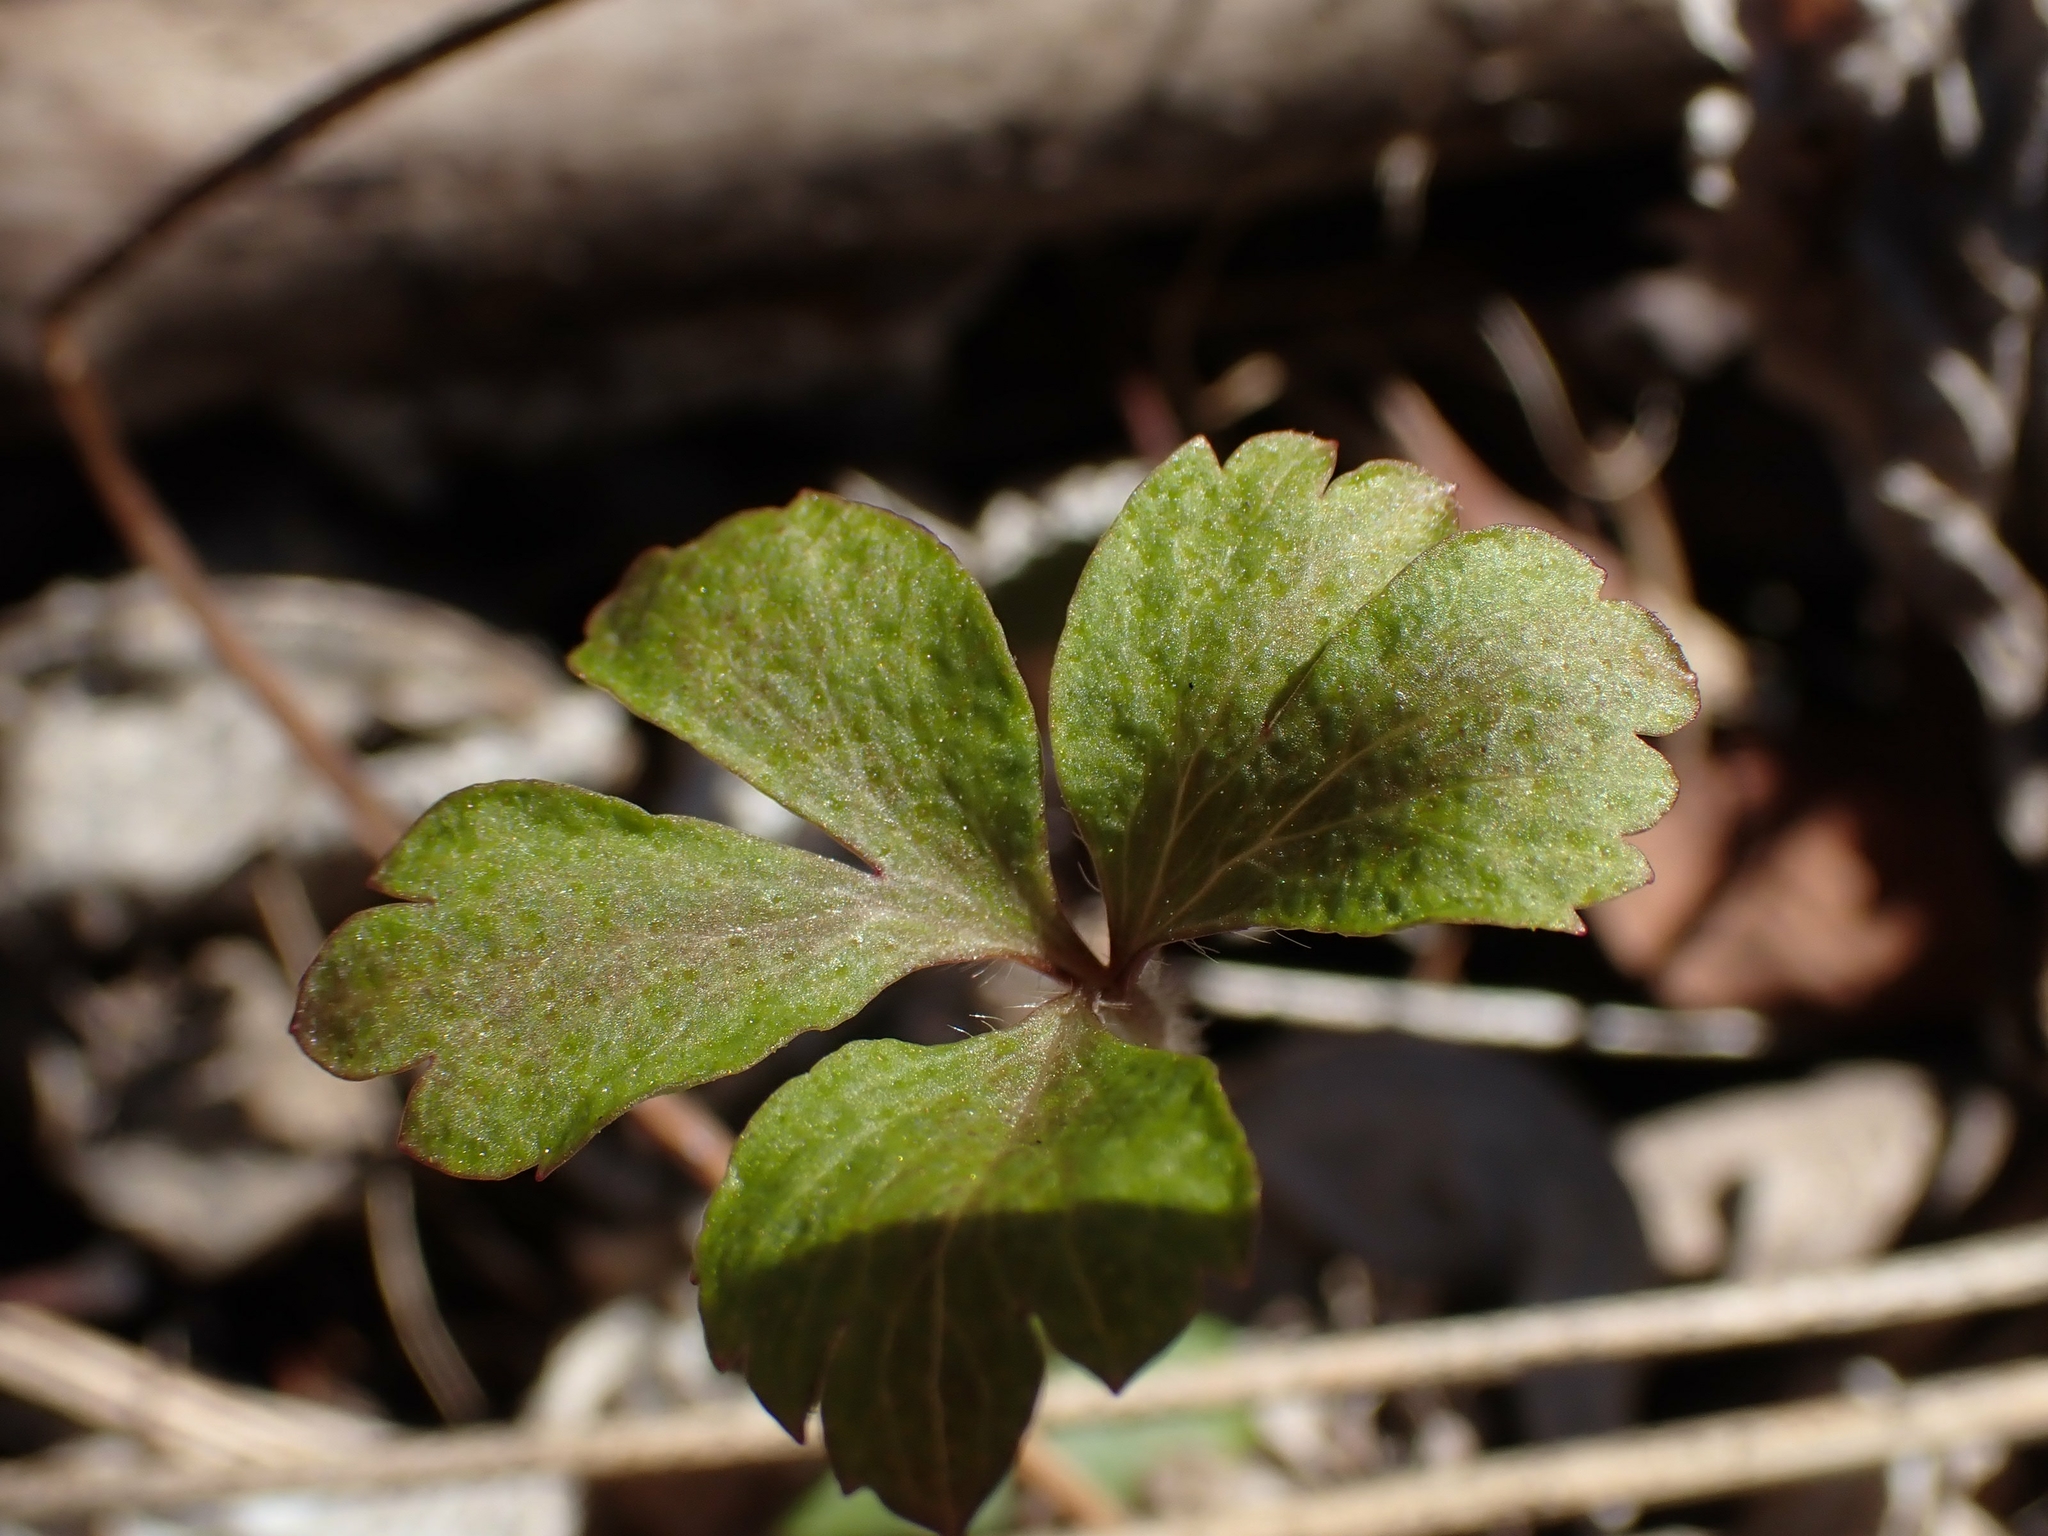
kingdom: Plantae
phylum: Tracheophyta
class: Magnoliopsida
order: Ranunculales
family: Ranunculaceae
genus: Anemone
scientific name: Anemone quinquefolia
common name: Wood anemone
